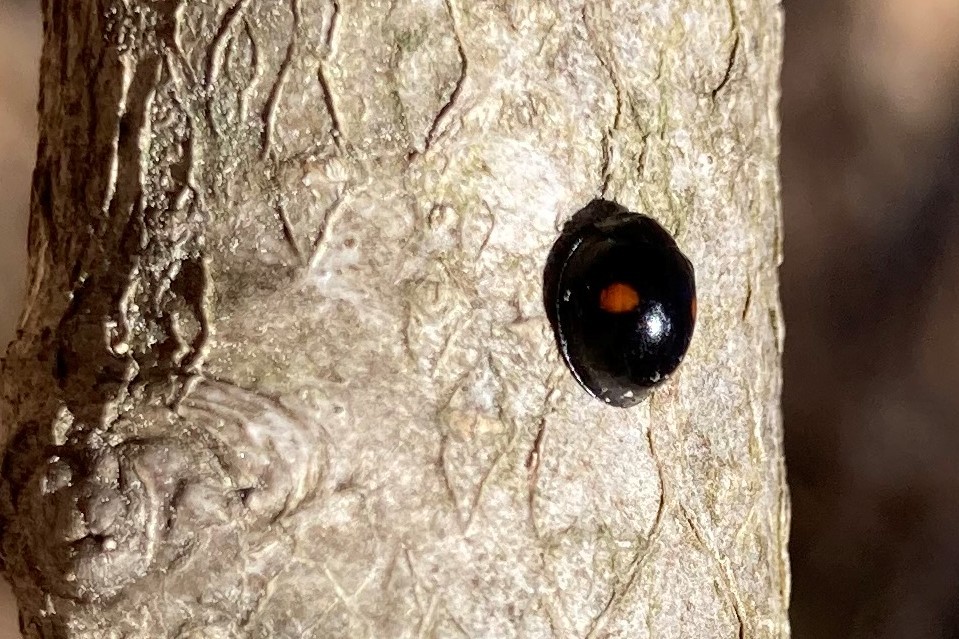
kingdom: Animalia
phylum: Arthropoda
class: Insecta
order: Coleoptera
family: Coccinellidae
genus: Chilocorus
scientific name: Chilocorus stigma
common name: Twicestabbed lady beetle
